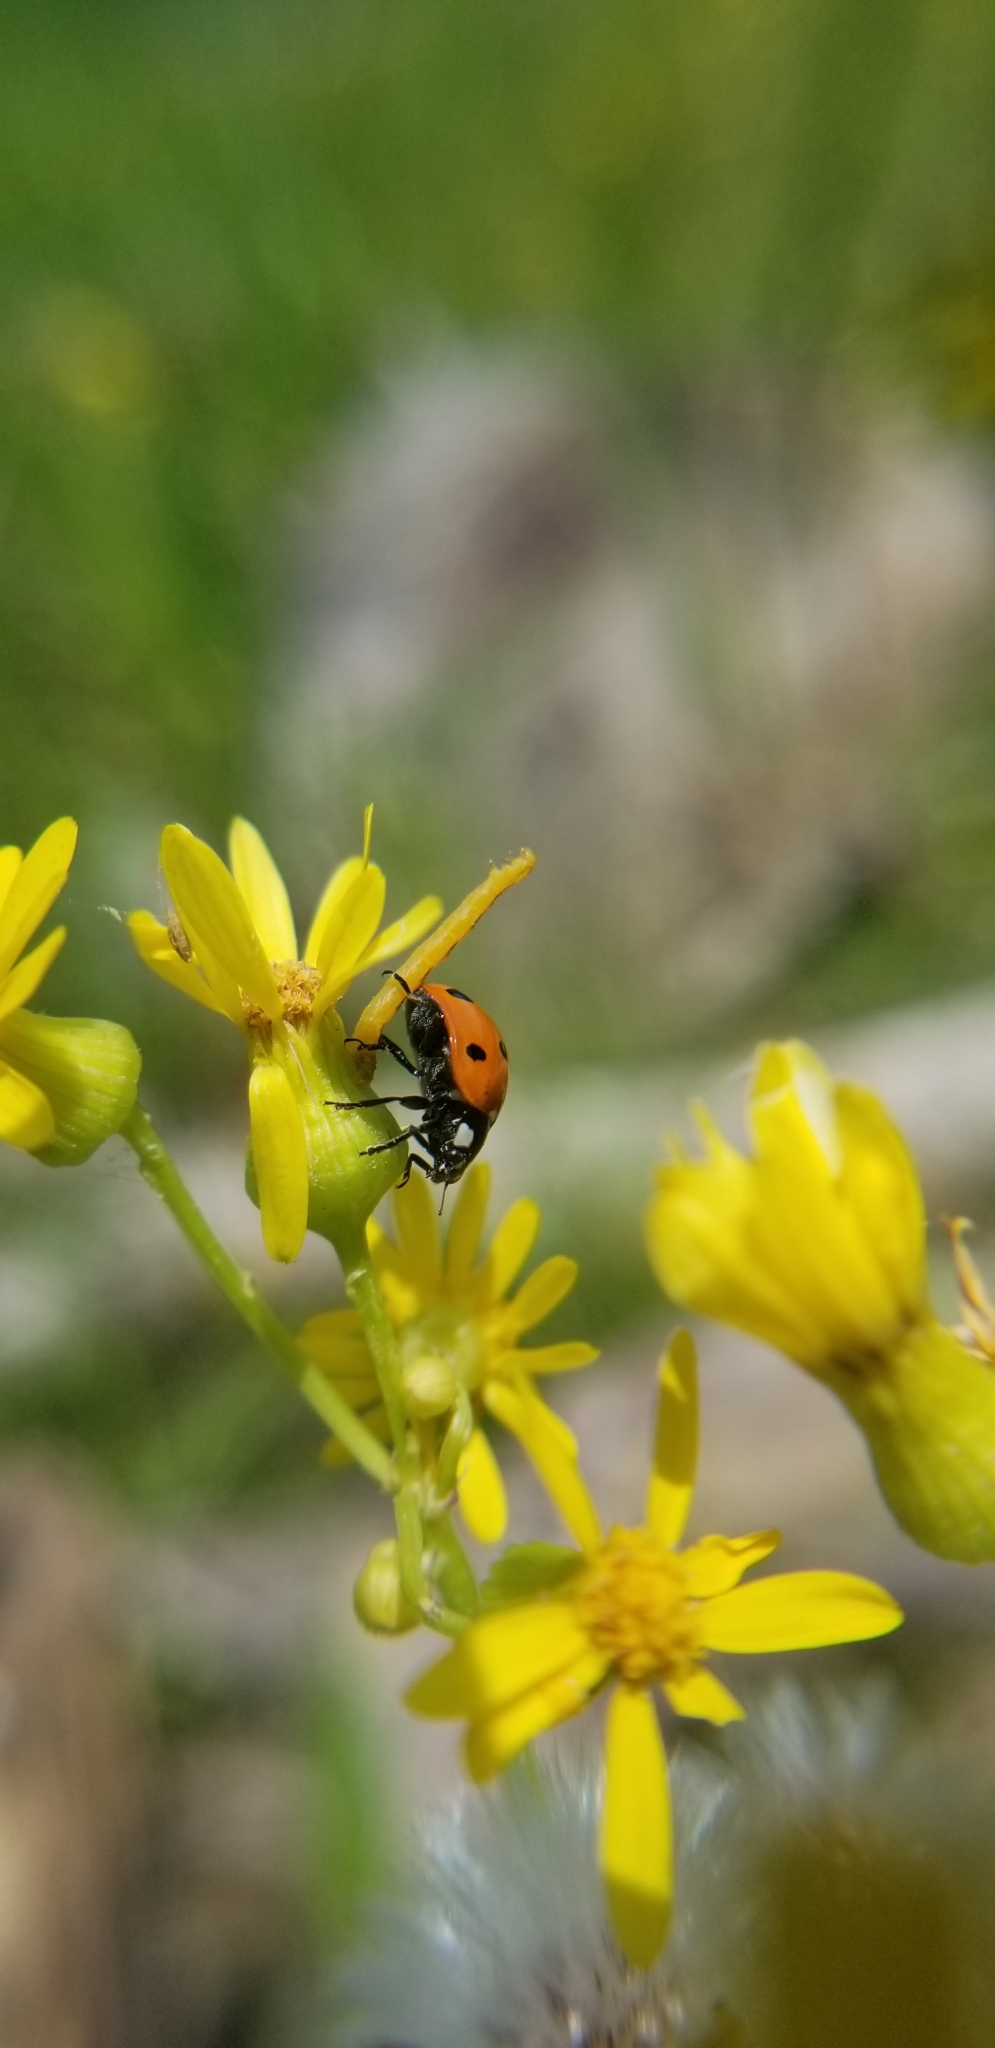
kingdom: Animalia
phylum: Arthropoda
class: Insecta
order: Coleoptera
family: Coccinellidae
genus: Coccinella
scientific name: Coccinella septempunctata
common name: Sevenspotted lady beetle
